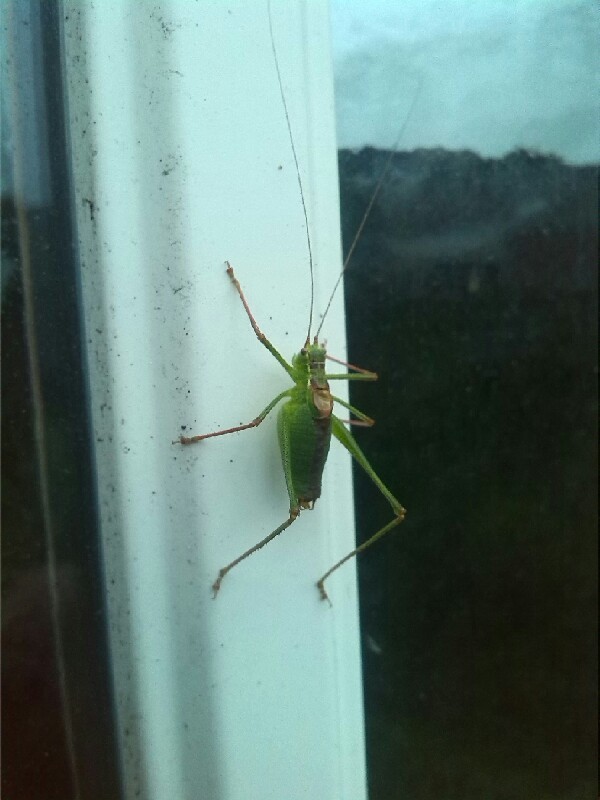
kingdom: Animalia
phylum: Arthropoda
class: Insecta
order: Orthoptera
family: Tettigoniidae
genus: Leptophyes
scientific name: Leptophyes punctatissima
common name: Speckled bush-cricket
